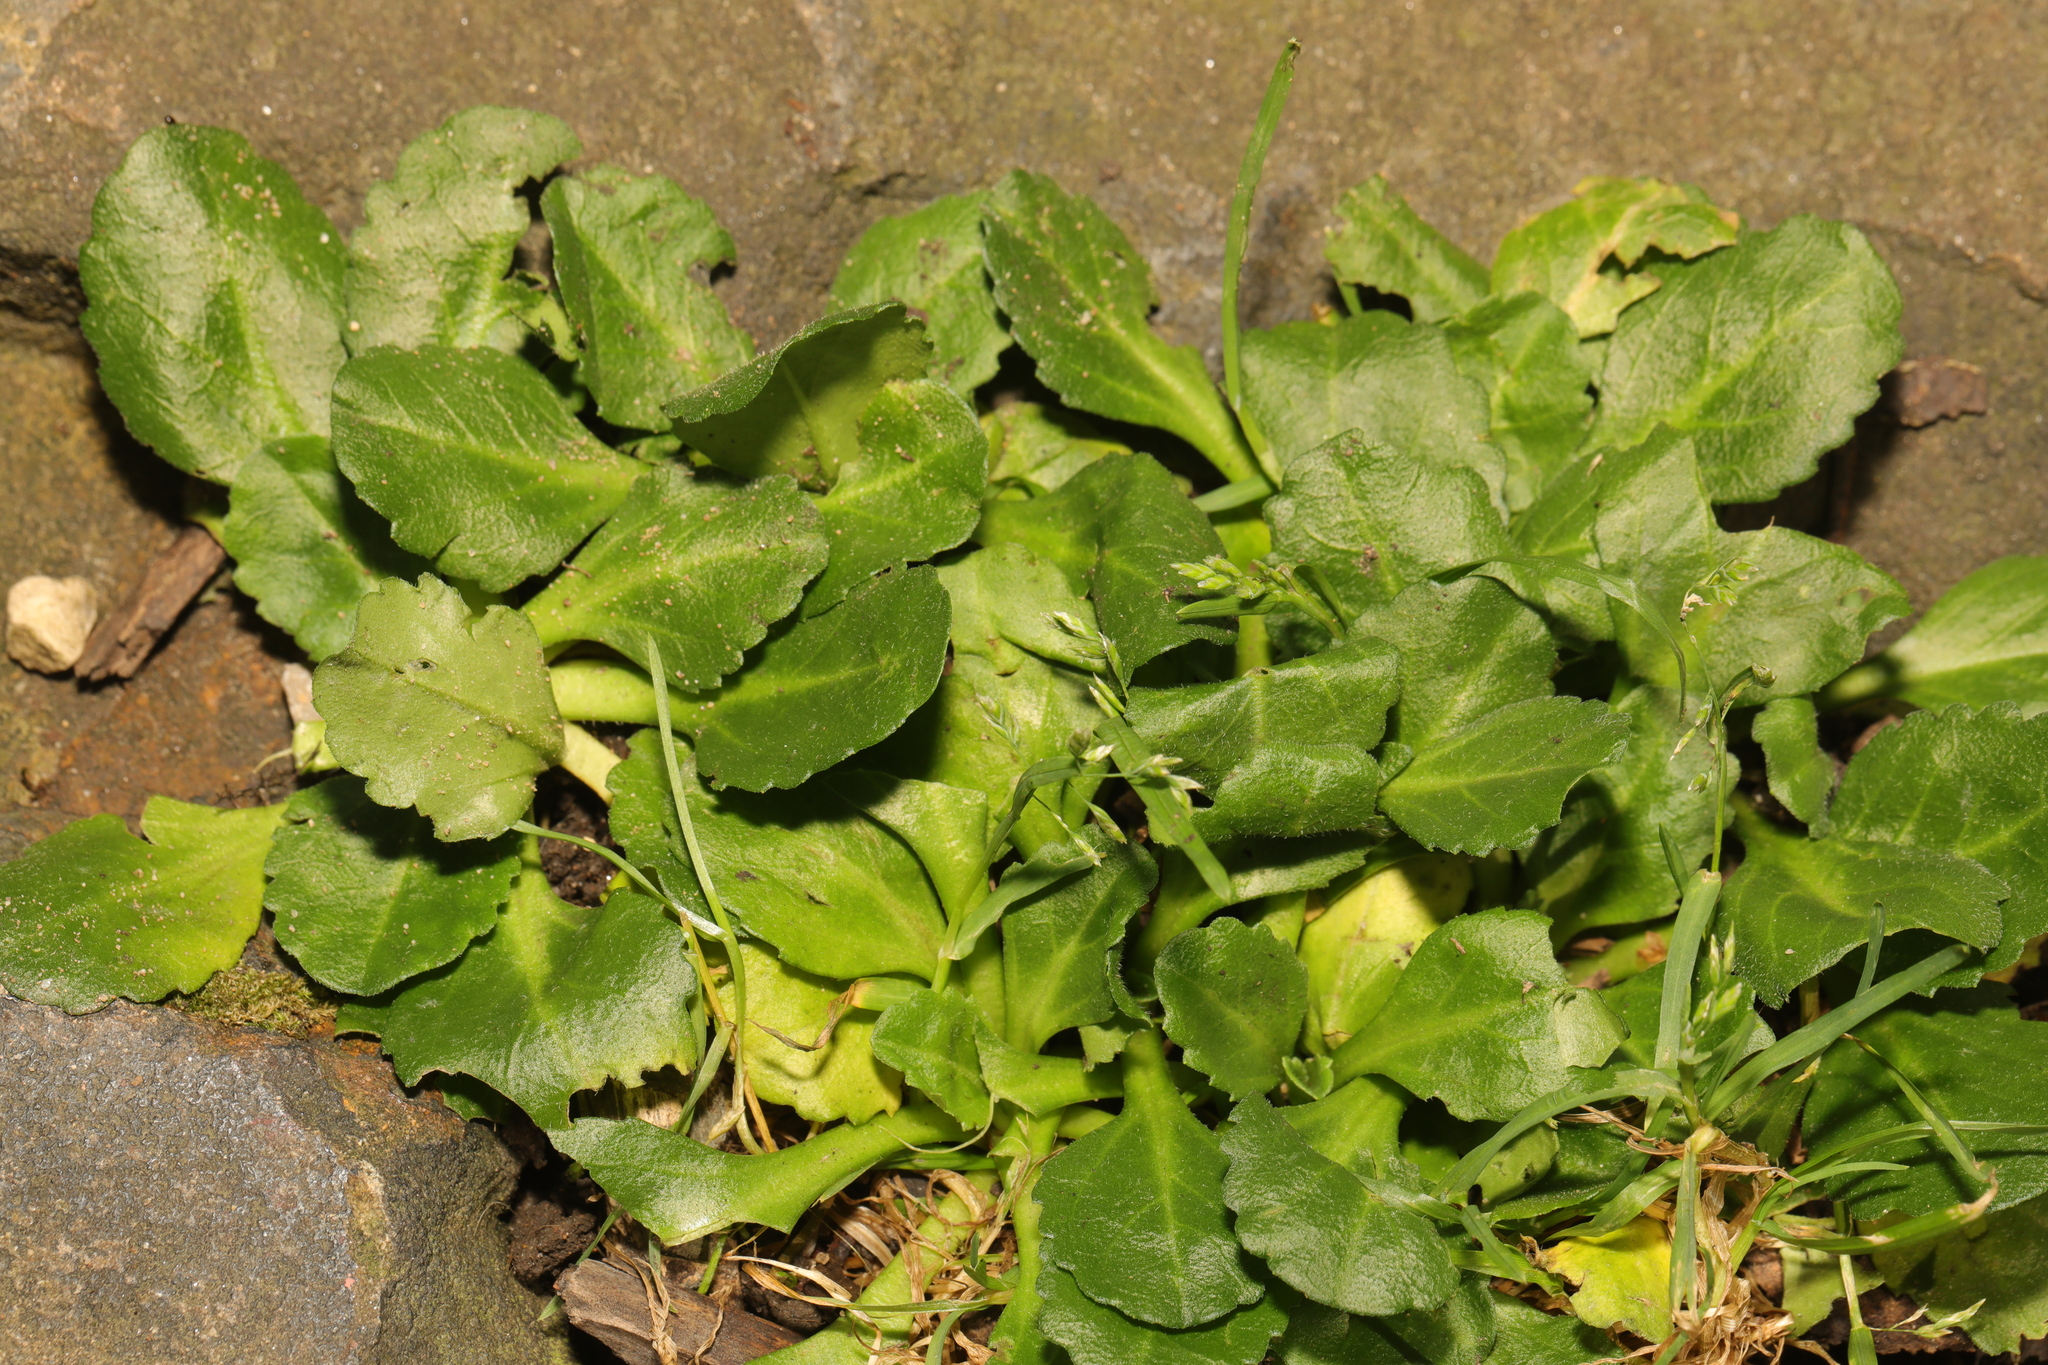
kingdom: Plantae
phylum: Tracheophyta
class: Magnoliopsida
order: Asterales
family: Asteraceae
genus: Bellis
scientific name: Bellis perennis
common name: Lawndaisy
